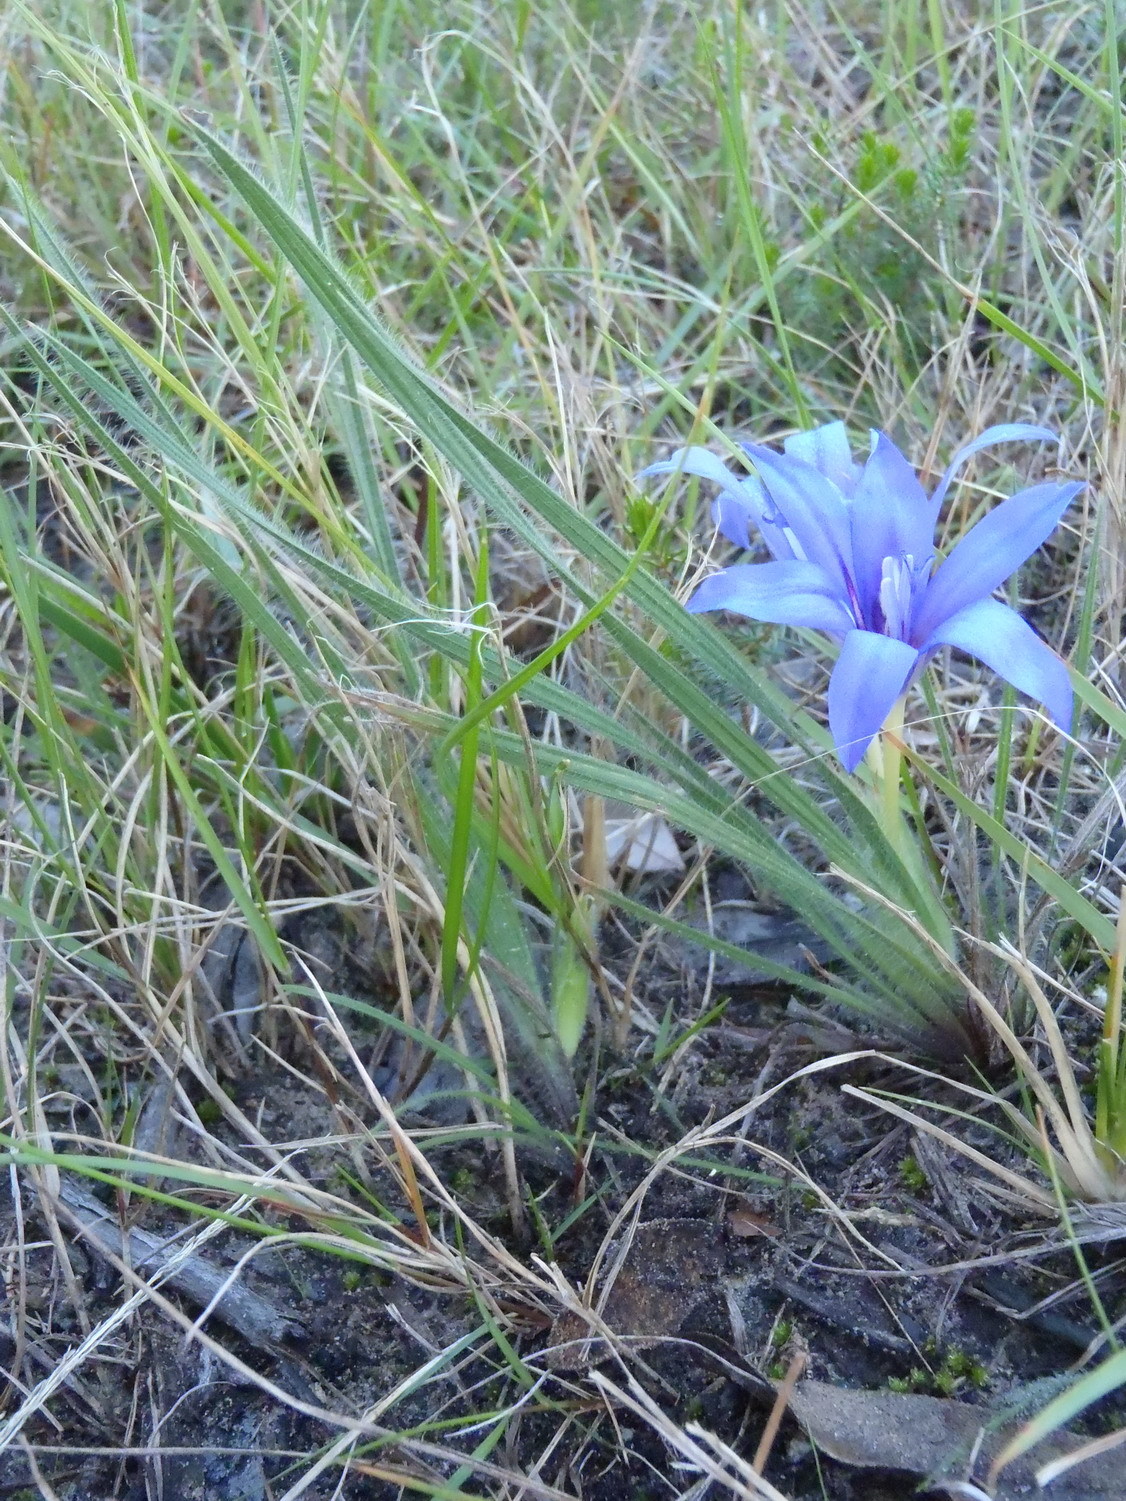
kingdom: Plantae
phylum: Tracheophyta
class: Liliopsida
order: Asparagales
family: Iridaceae
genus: Babiana
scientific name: Babiana sambucina
